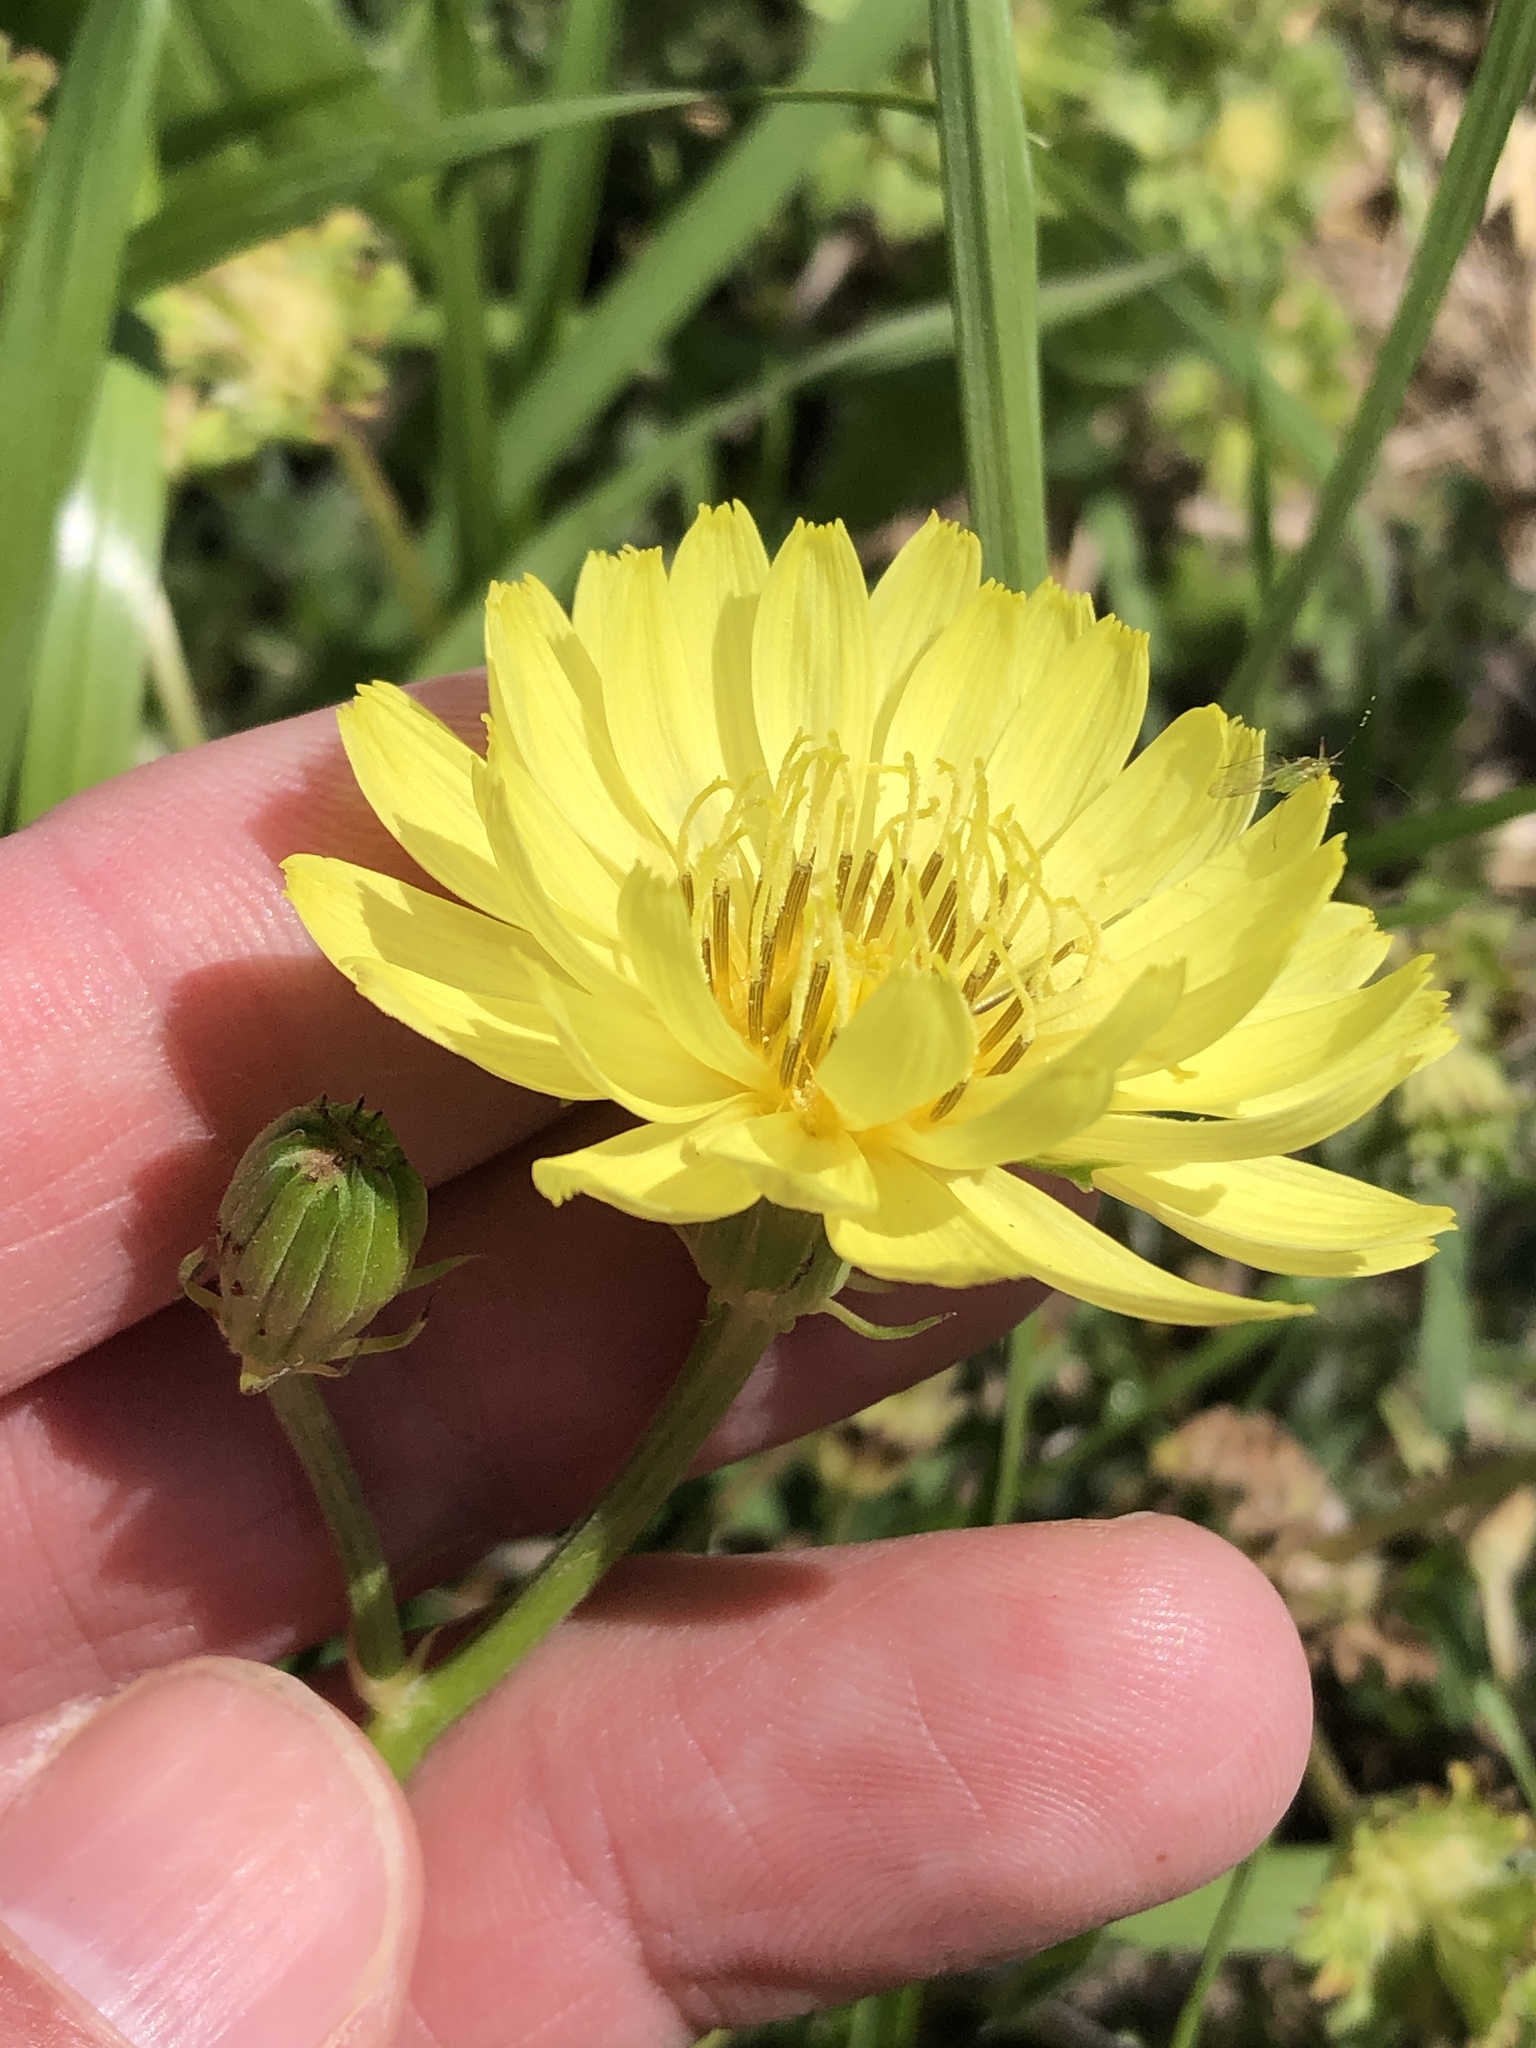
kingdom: Plantae
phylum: Tracheophyta
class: Magnoliopsida
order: Asterales
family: Asteraceae
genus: Pyrrhopappus
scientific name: Pyrrhopappus pauciflorus
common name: Texas false dandelion
